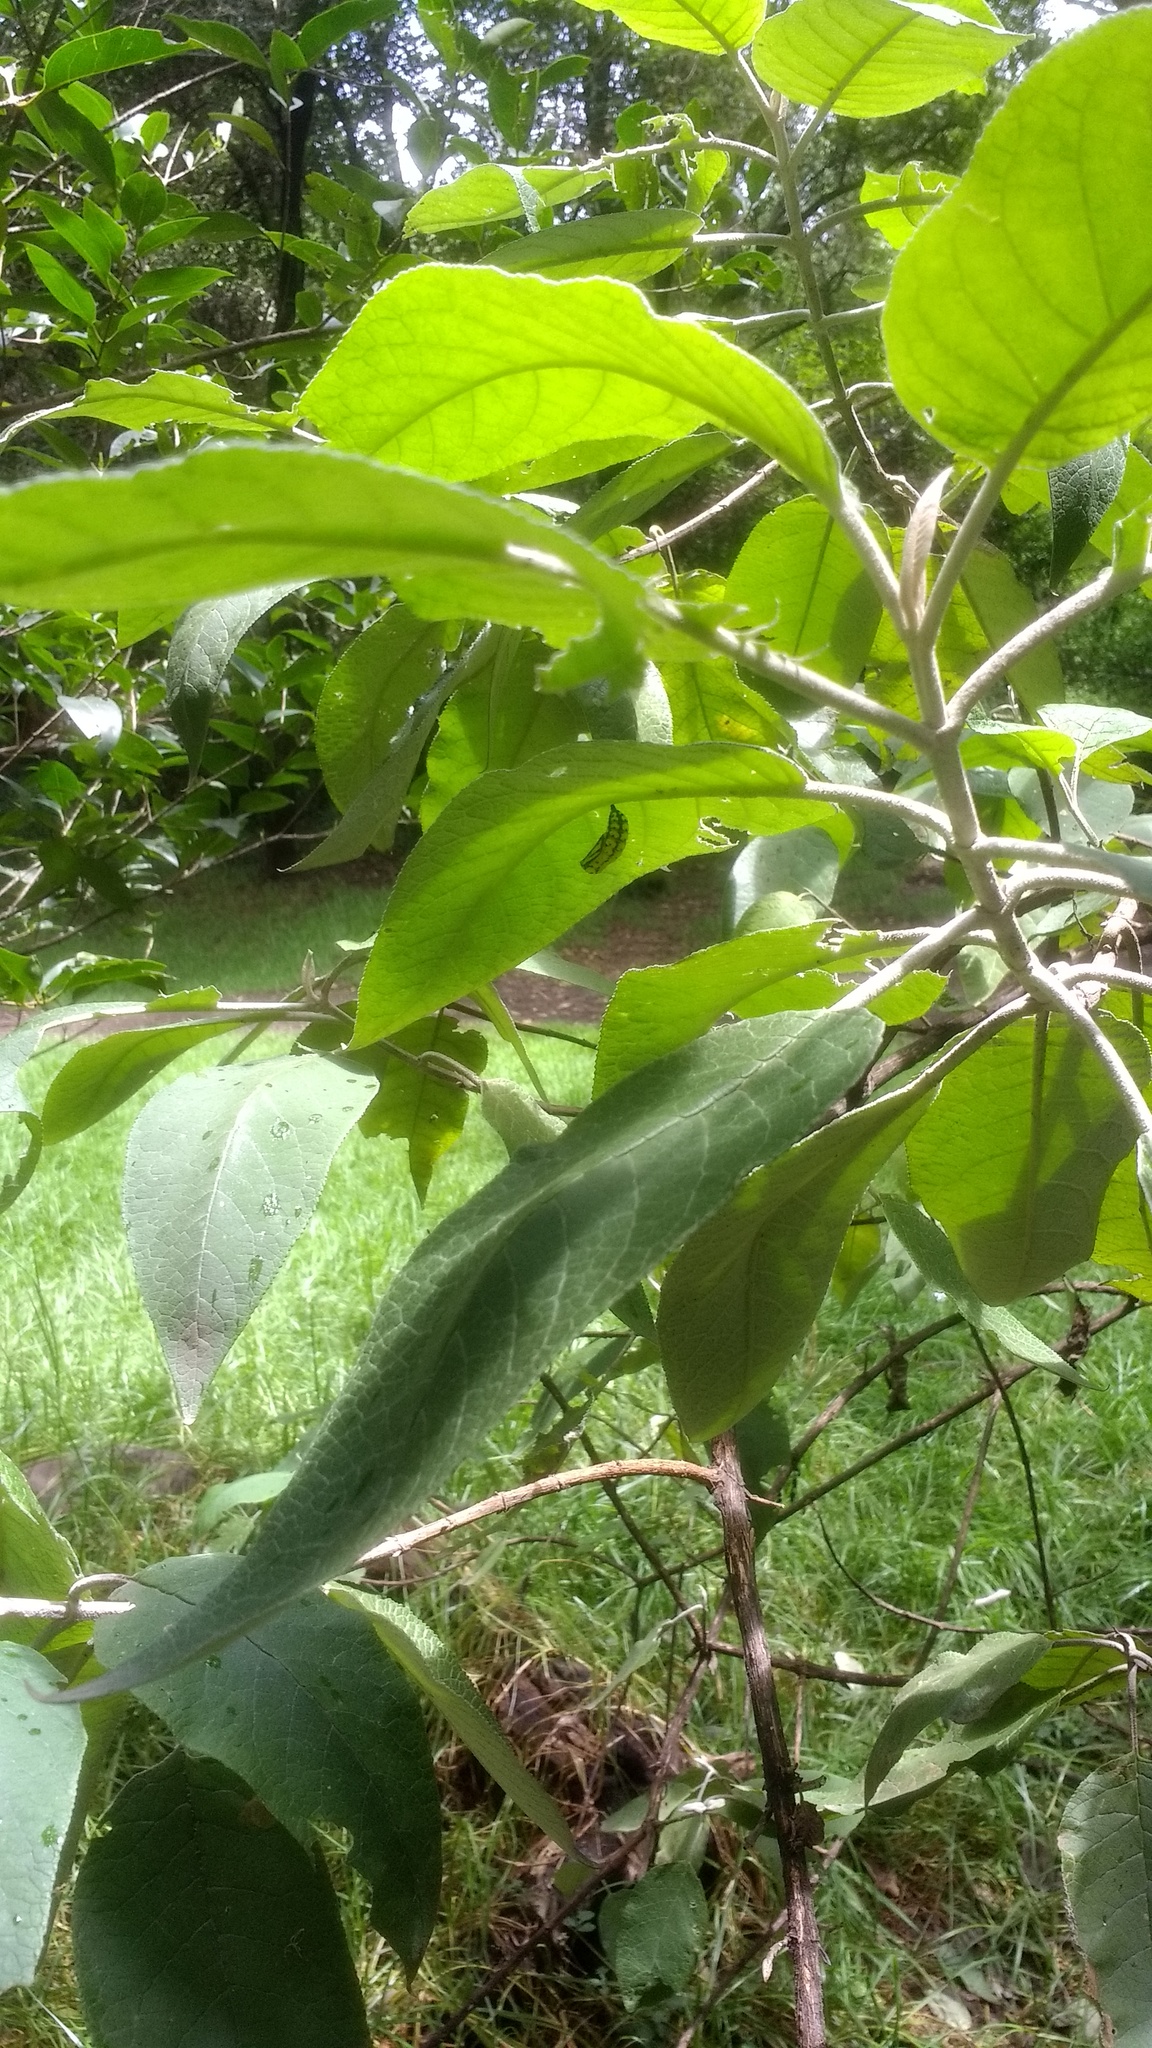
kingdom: Animalia
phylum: Arthropoda
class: Insecta
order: Lepidoptera
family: Nymphalidae
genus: Chlosyne
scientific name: Chlosyne ehrenbergii
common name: White-rayed patch
